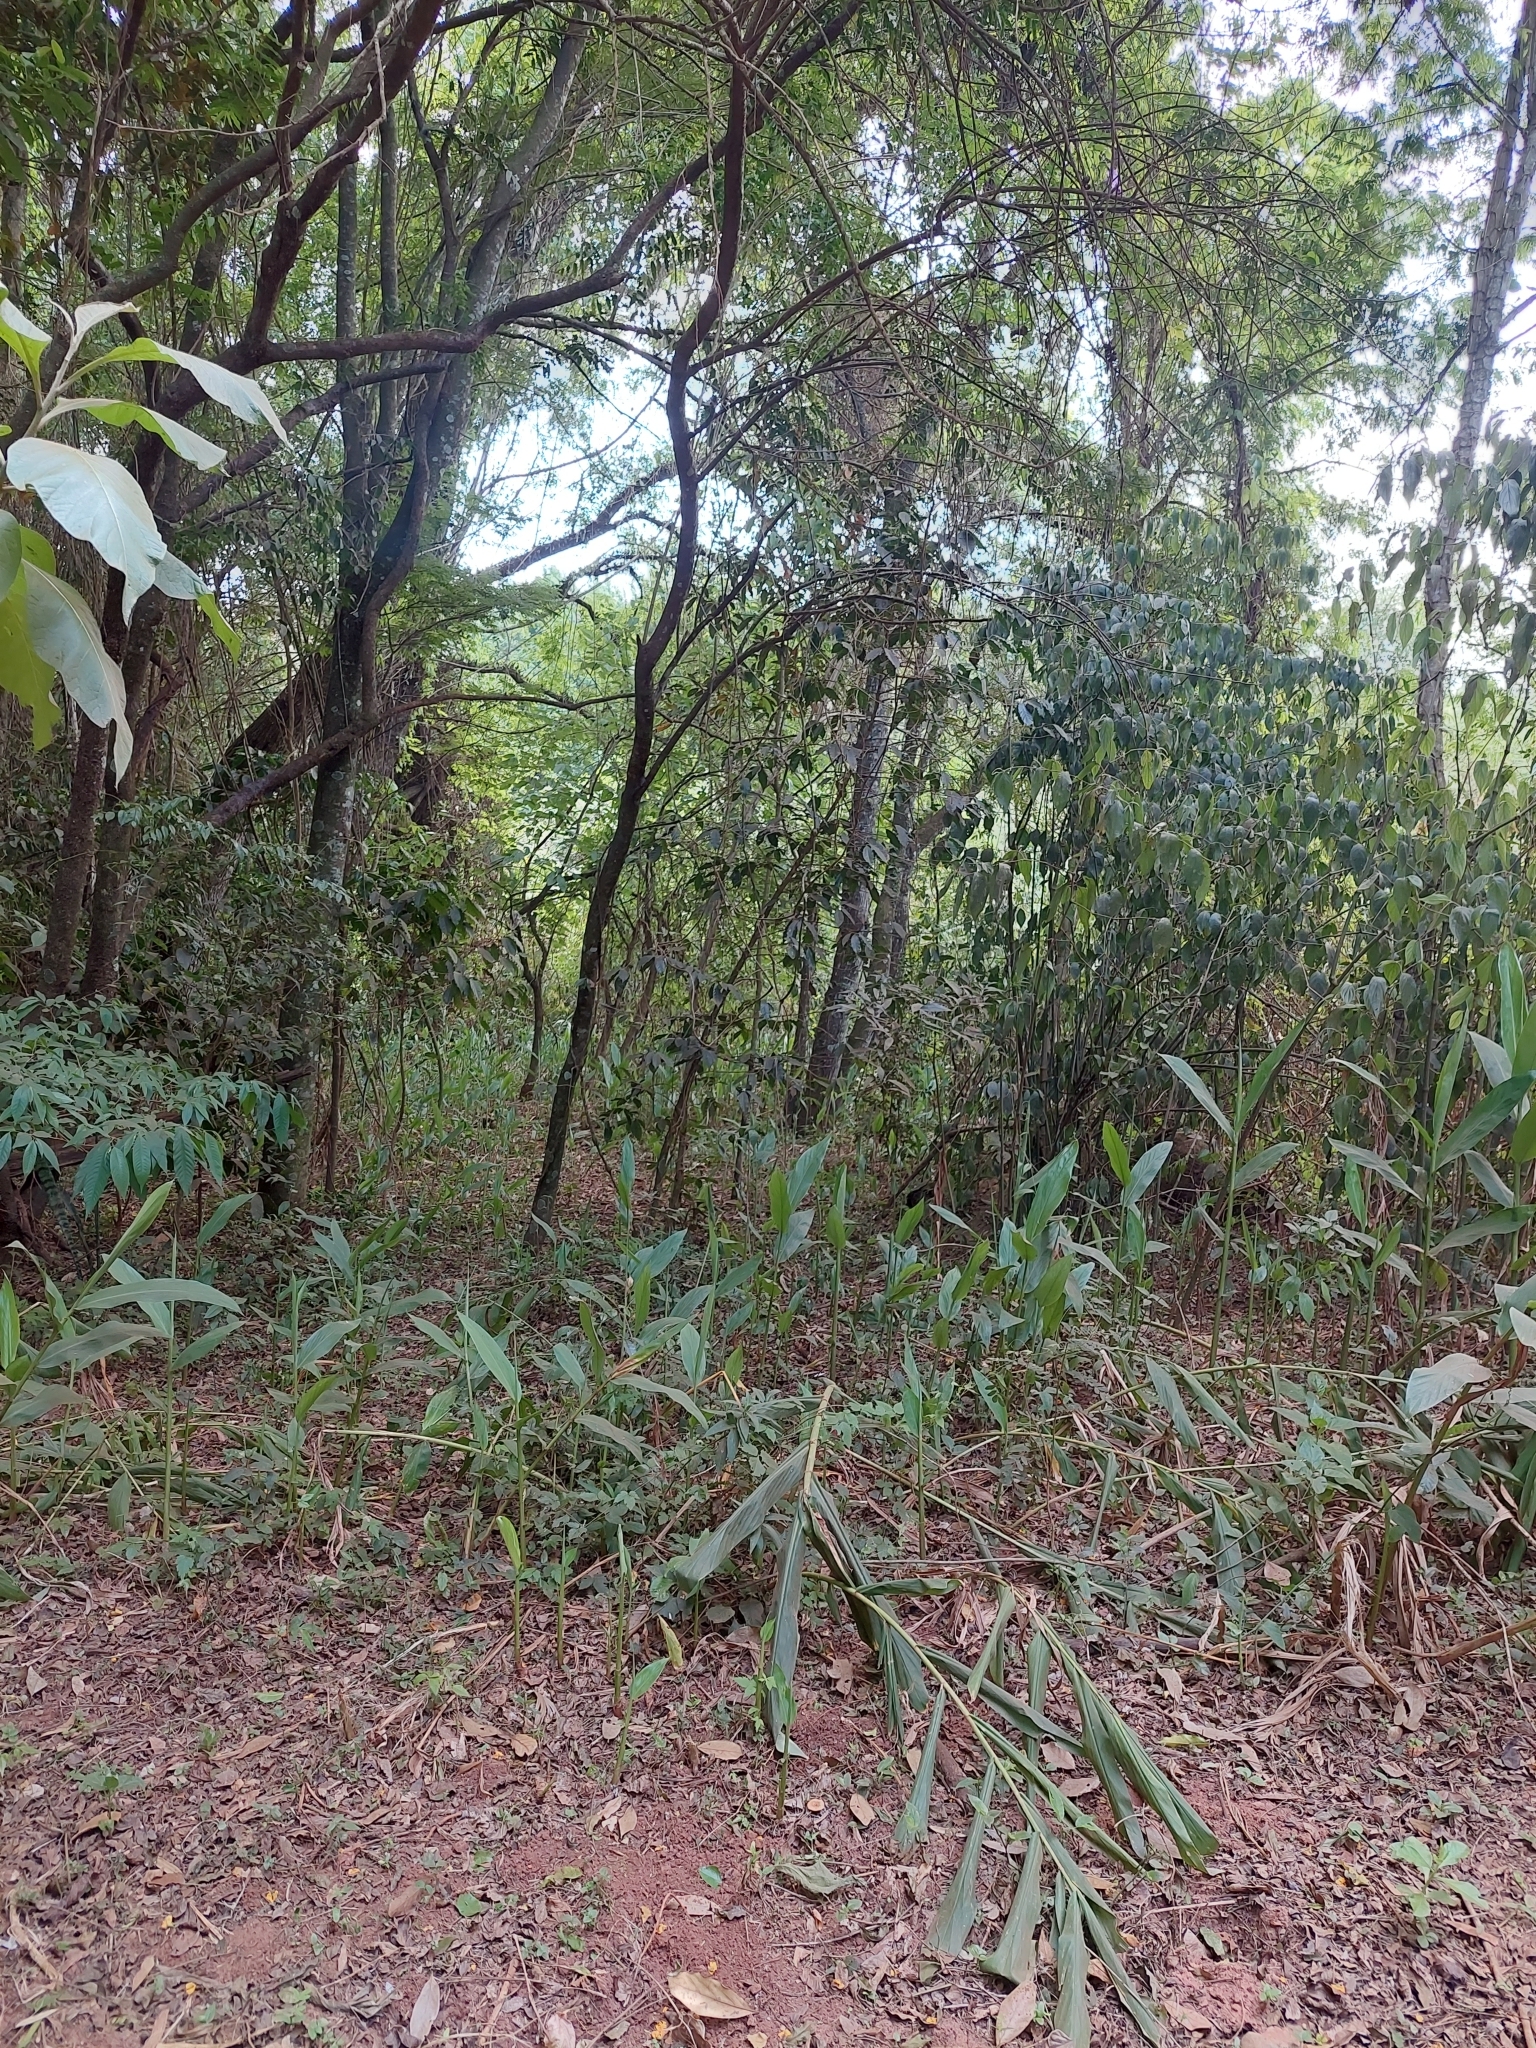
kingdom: Plantae
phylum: Tracheophyta
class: Liliopsida
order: Zingiberales
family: Zingiberaceae
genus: Hedychium
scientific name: Hedychium coronarium
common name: White garland-lily
